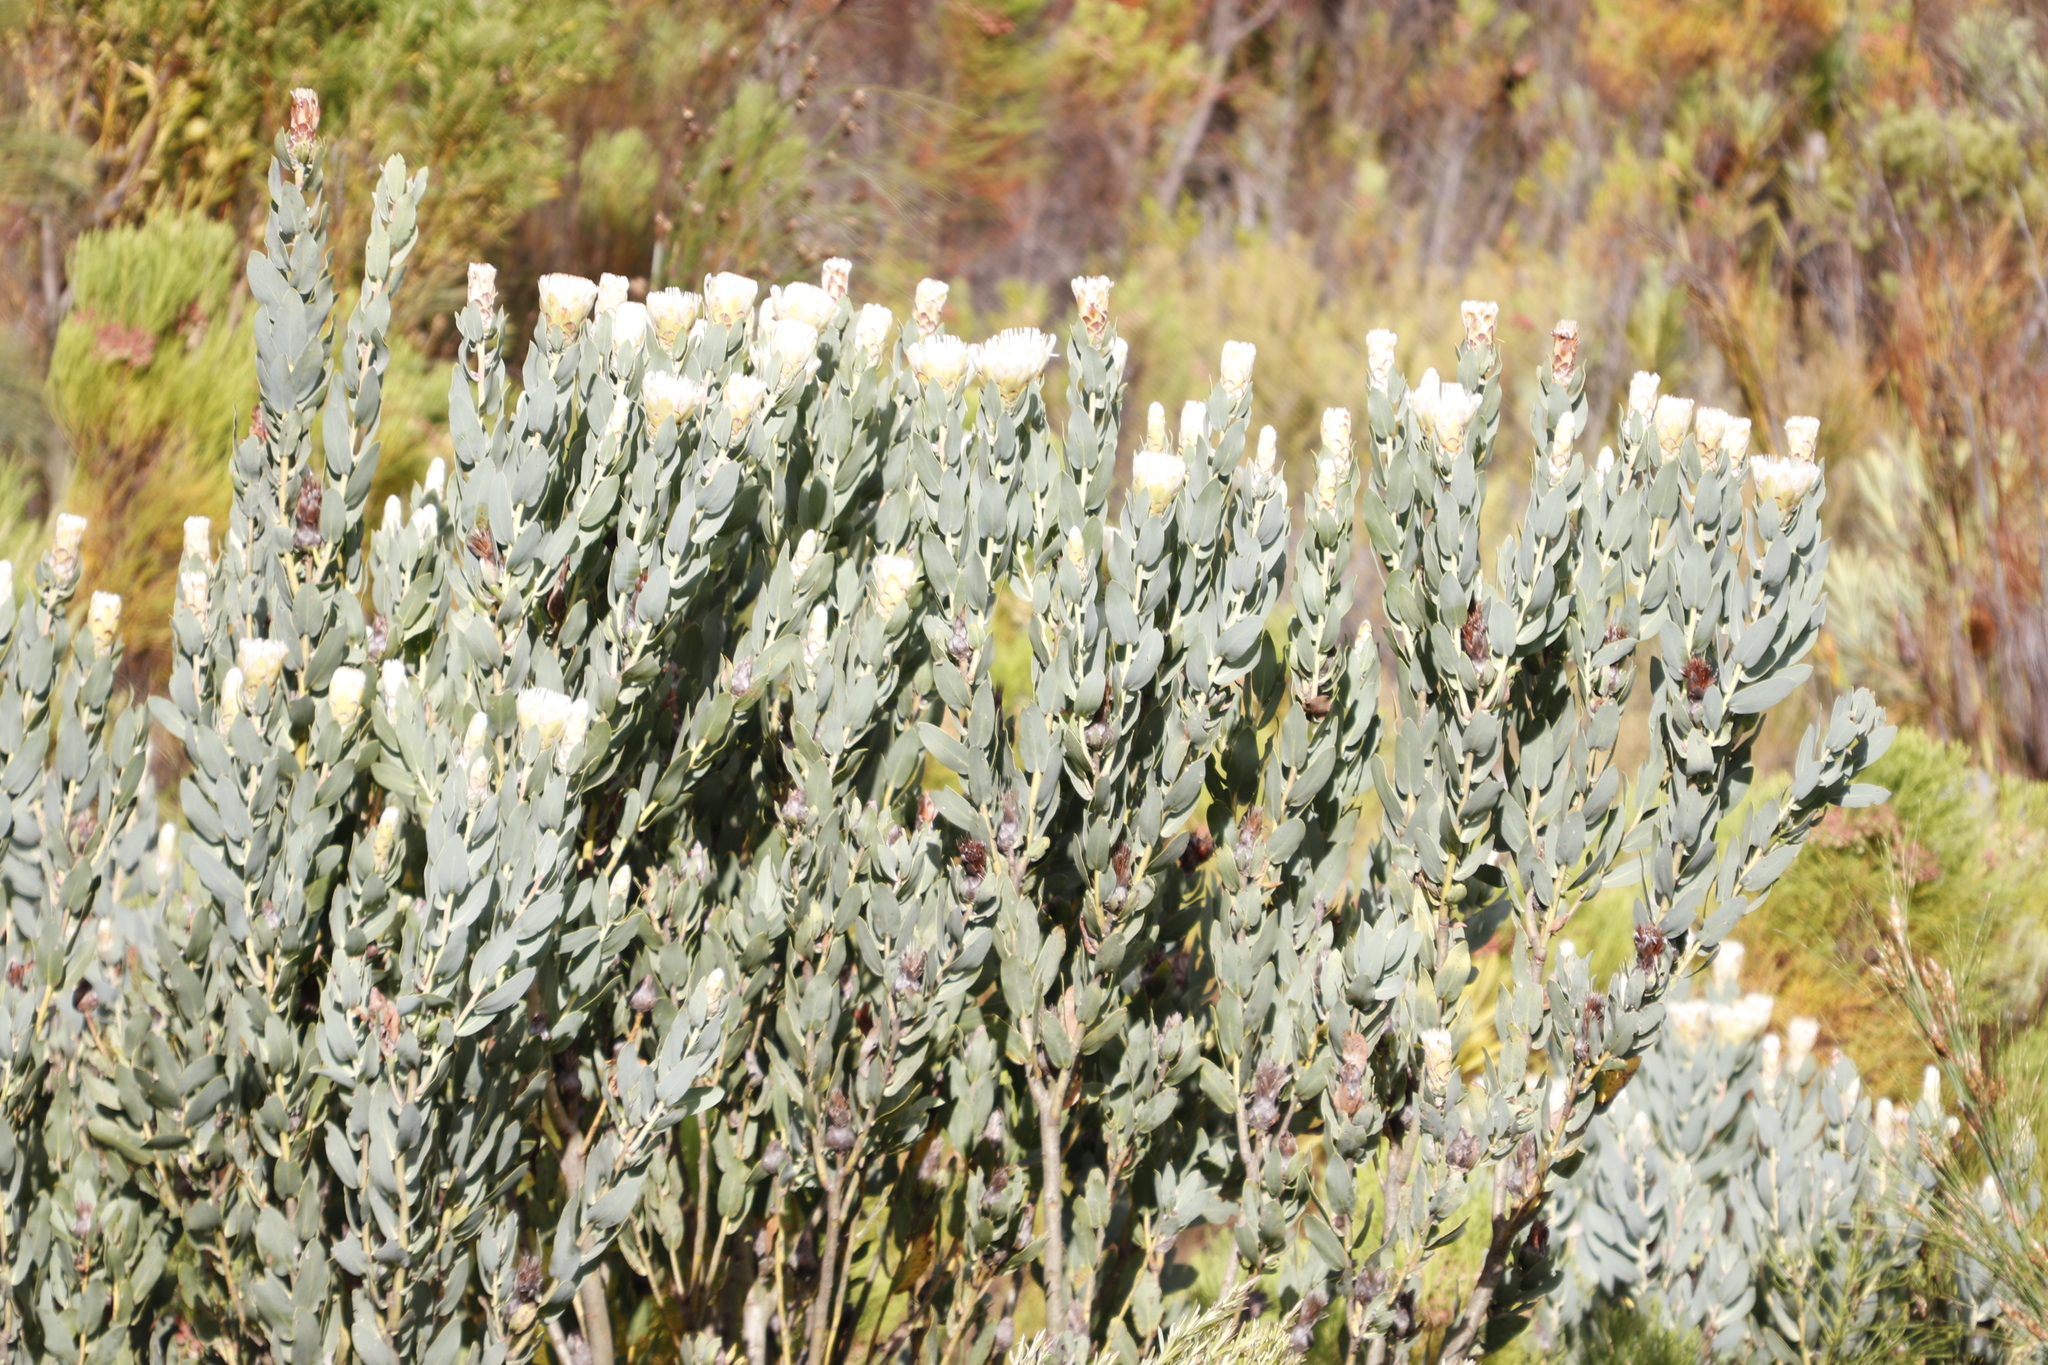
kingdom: Plantae
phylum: Tracheophyta
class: Magnoliopsida
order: Proteales
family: Proteaceae
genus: Protea
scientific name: Protea lacticolor
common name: Hottentot sugarbush
